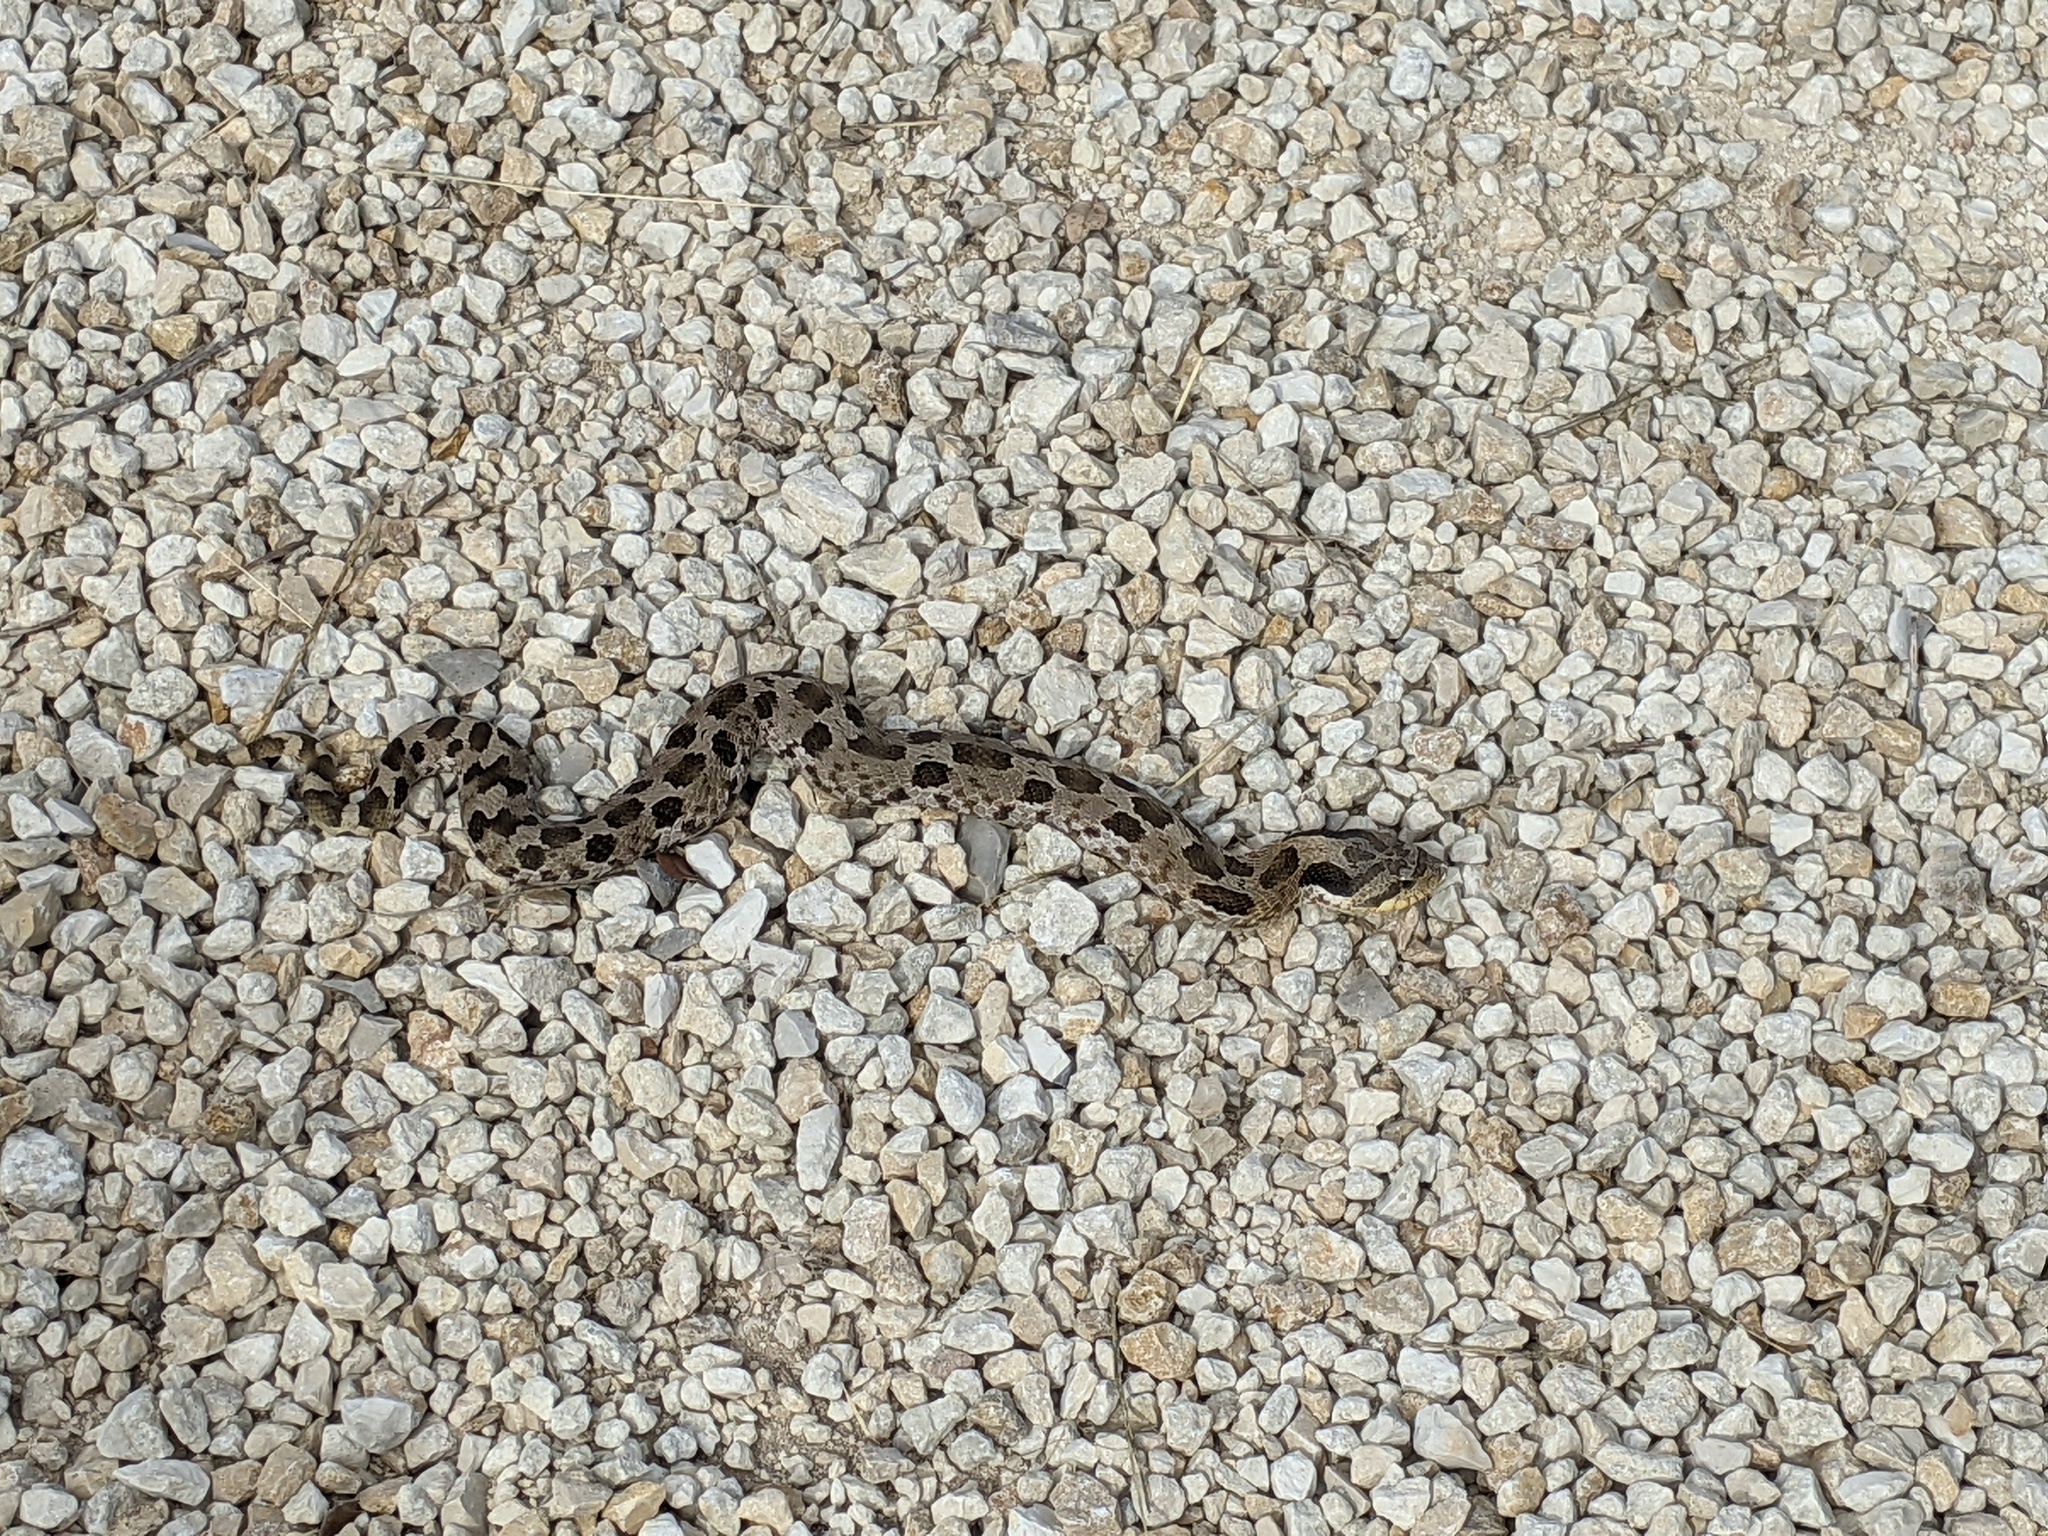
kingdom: Animalia
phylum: Chordata
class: Squamata
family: Colubridae
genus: Heterodon
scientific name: Heterodon platirhinos
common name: Eastern hognose snake
